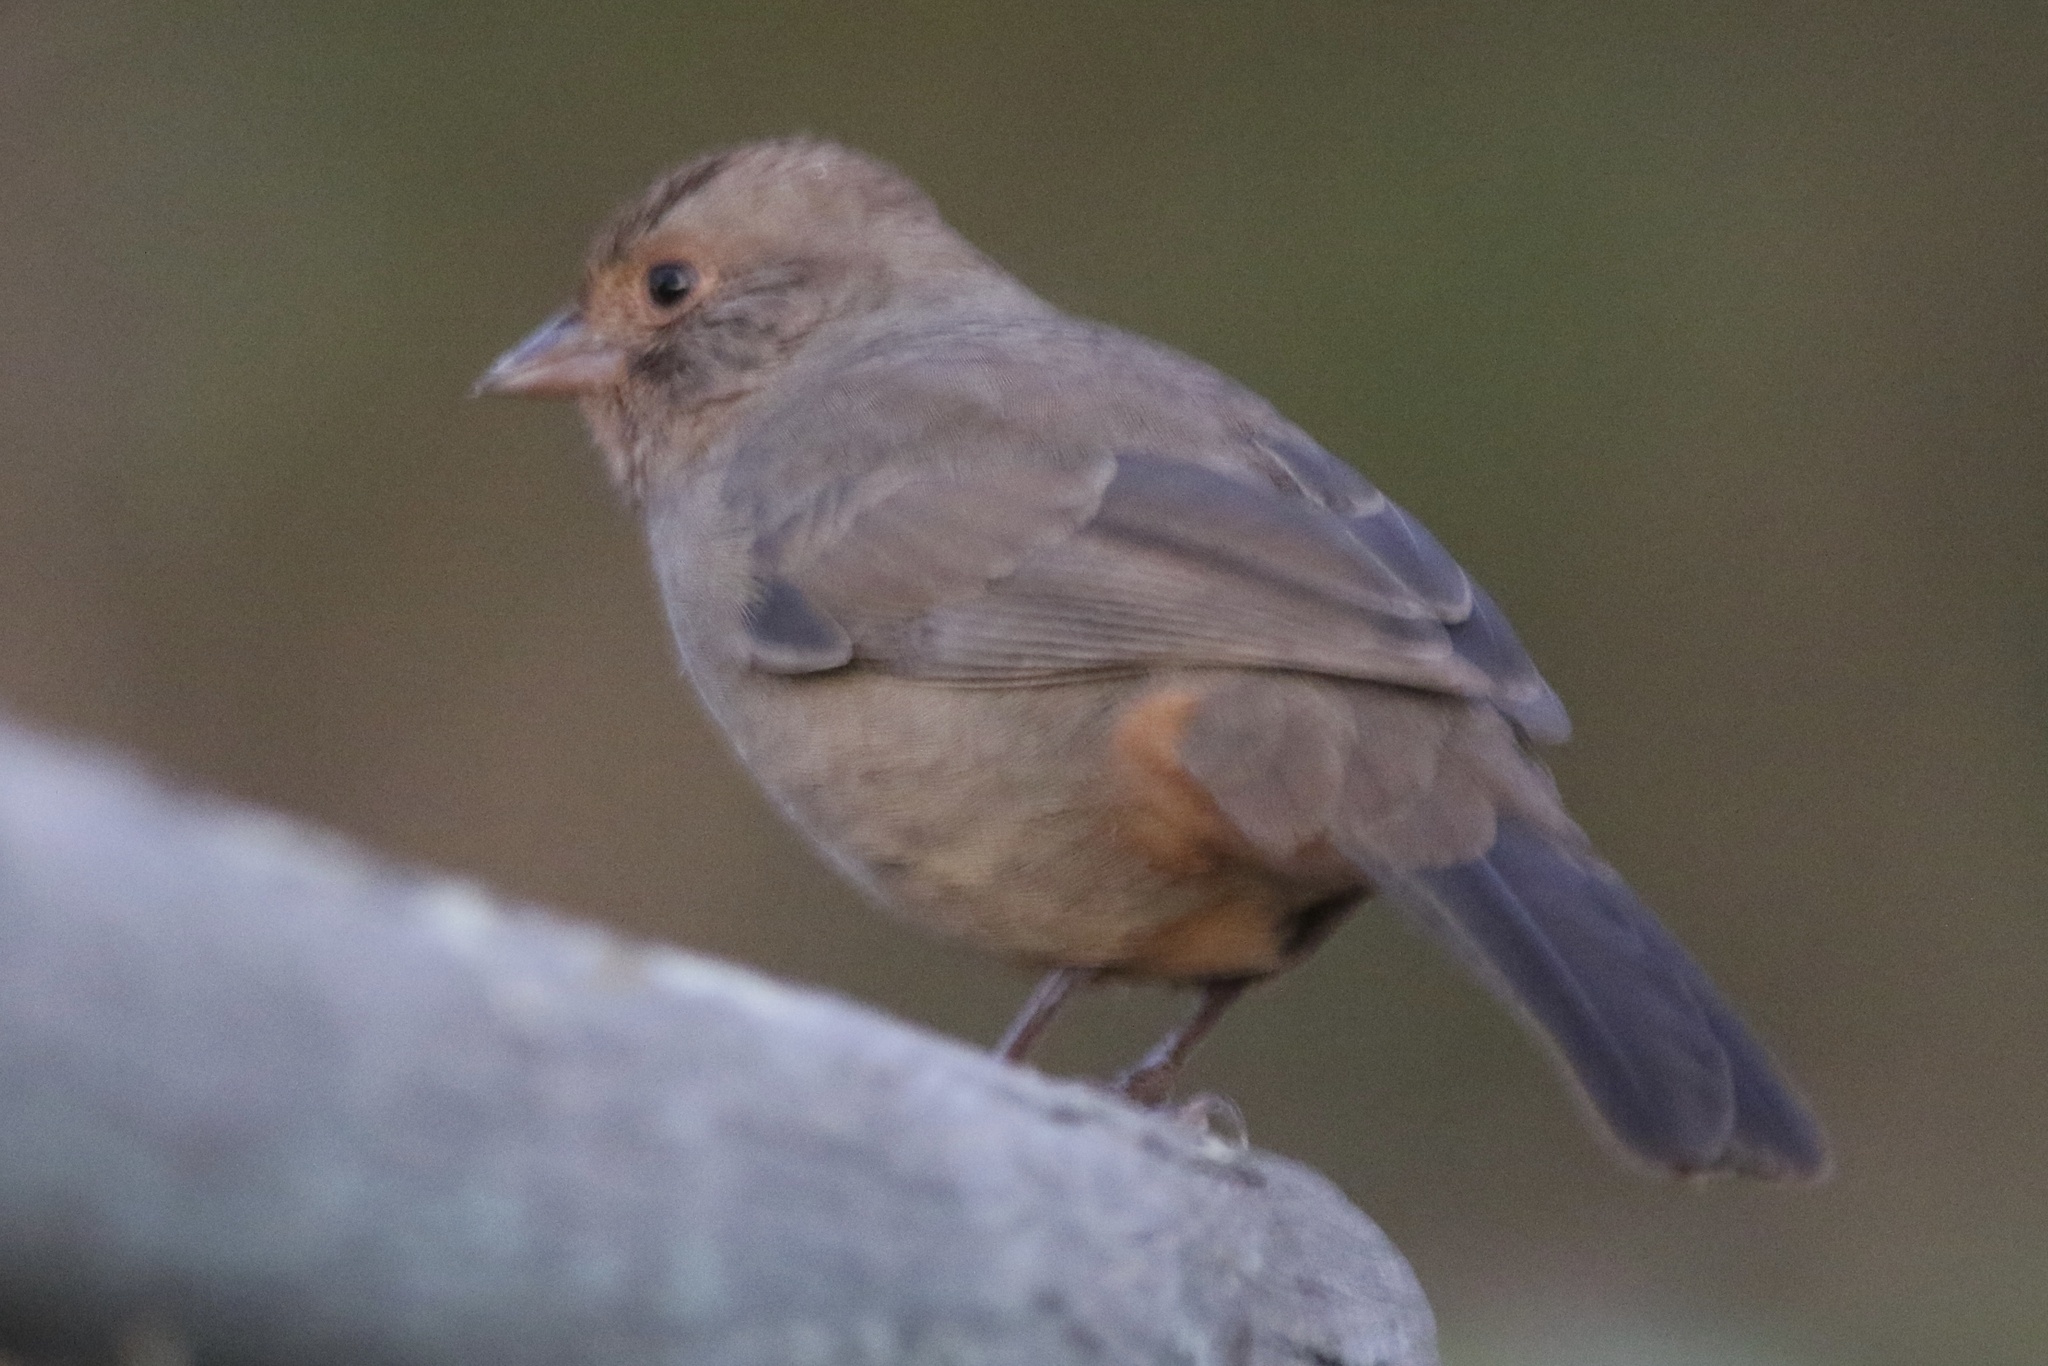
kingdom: Animalia
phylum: Chordata
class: Aves
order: Passeriformes
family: Passerellidae
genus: Melozone
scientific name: Melozone crissalis
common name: California towhee
